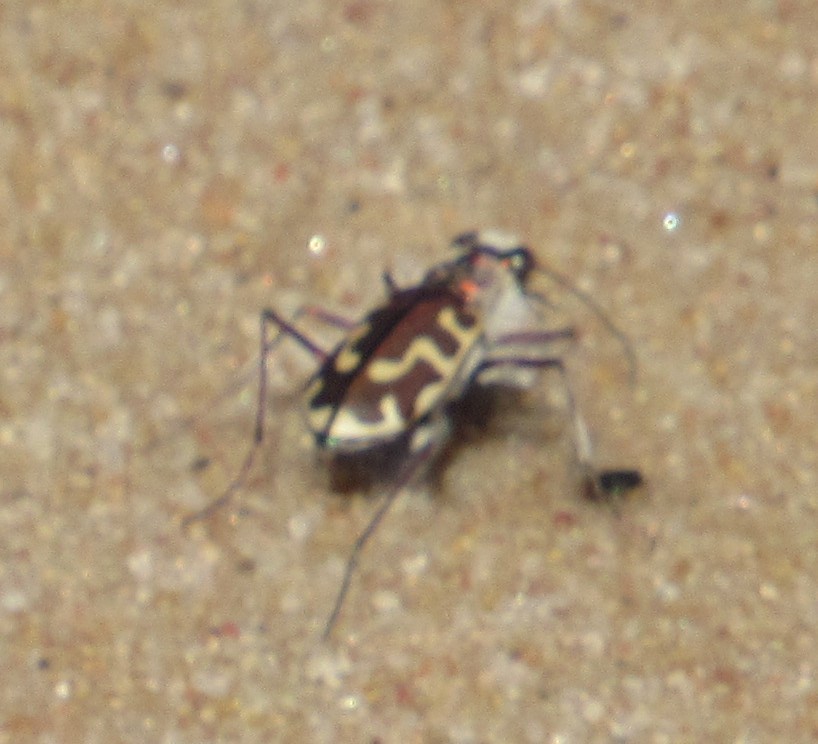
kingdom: Animalia
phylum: Arthropoda
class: Insecta
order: Coleoptera
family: Carabidae
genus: Cicindela
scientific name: Cicindela hirticollis
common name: Hairy-necked tiger beetle
